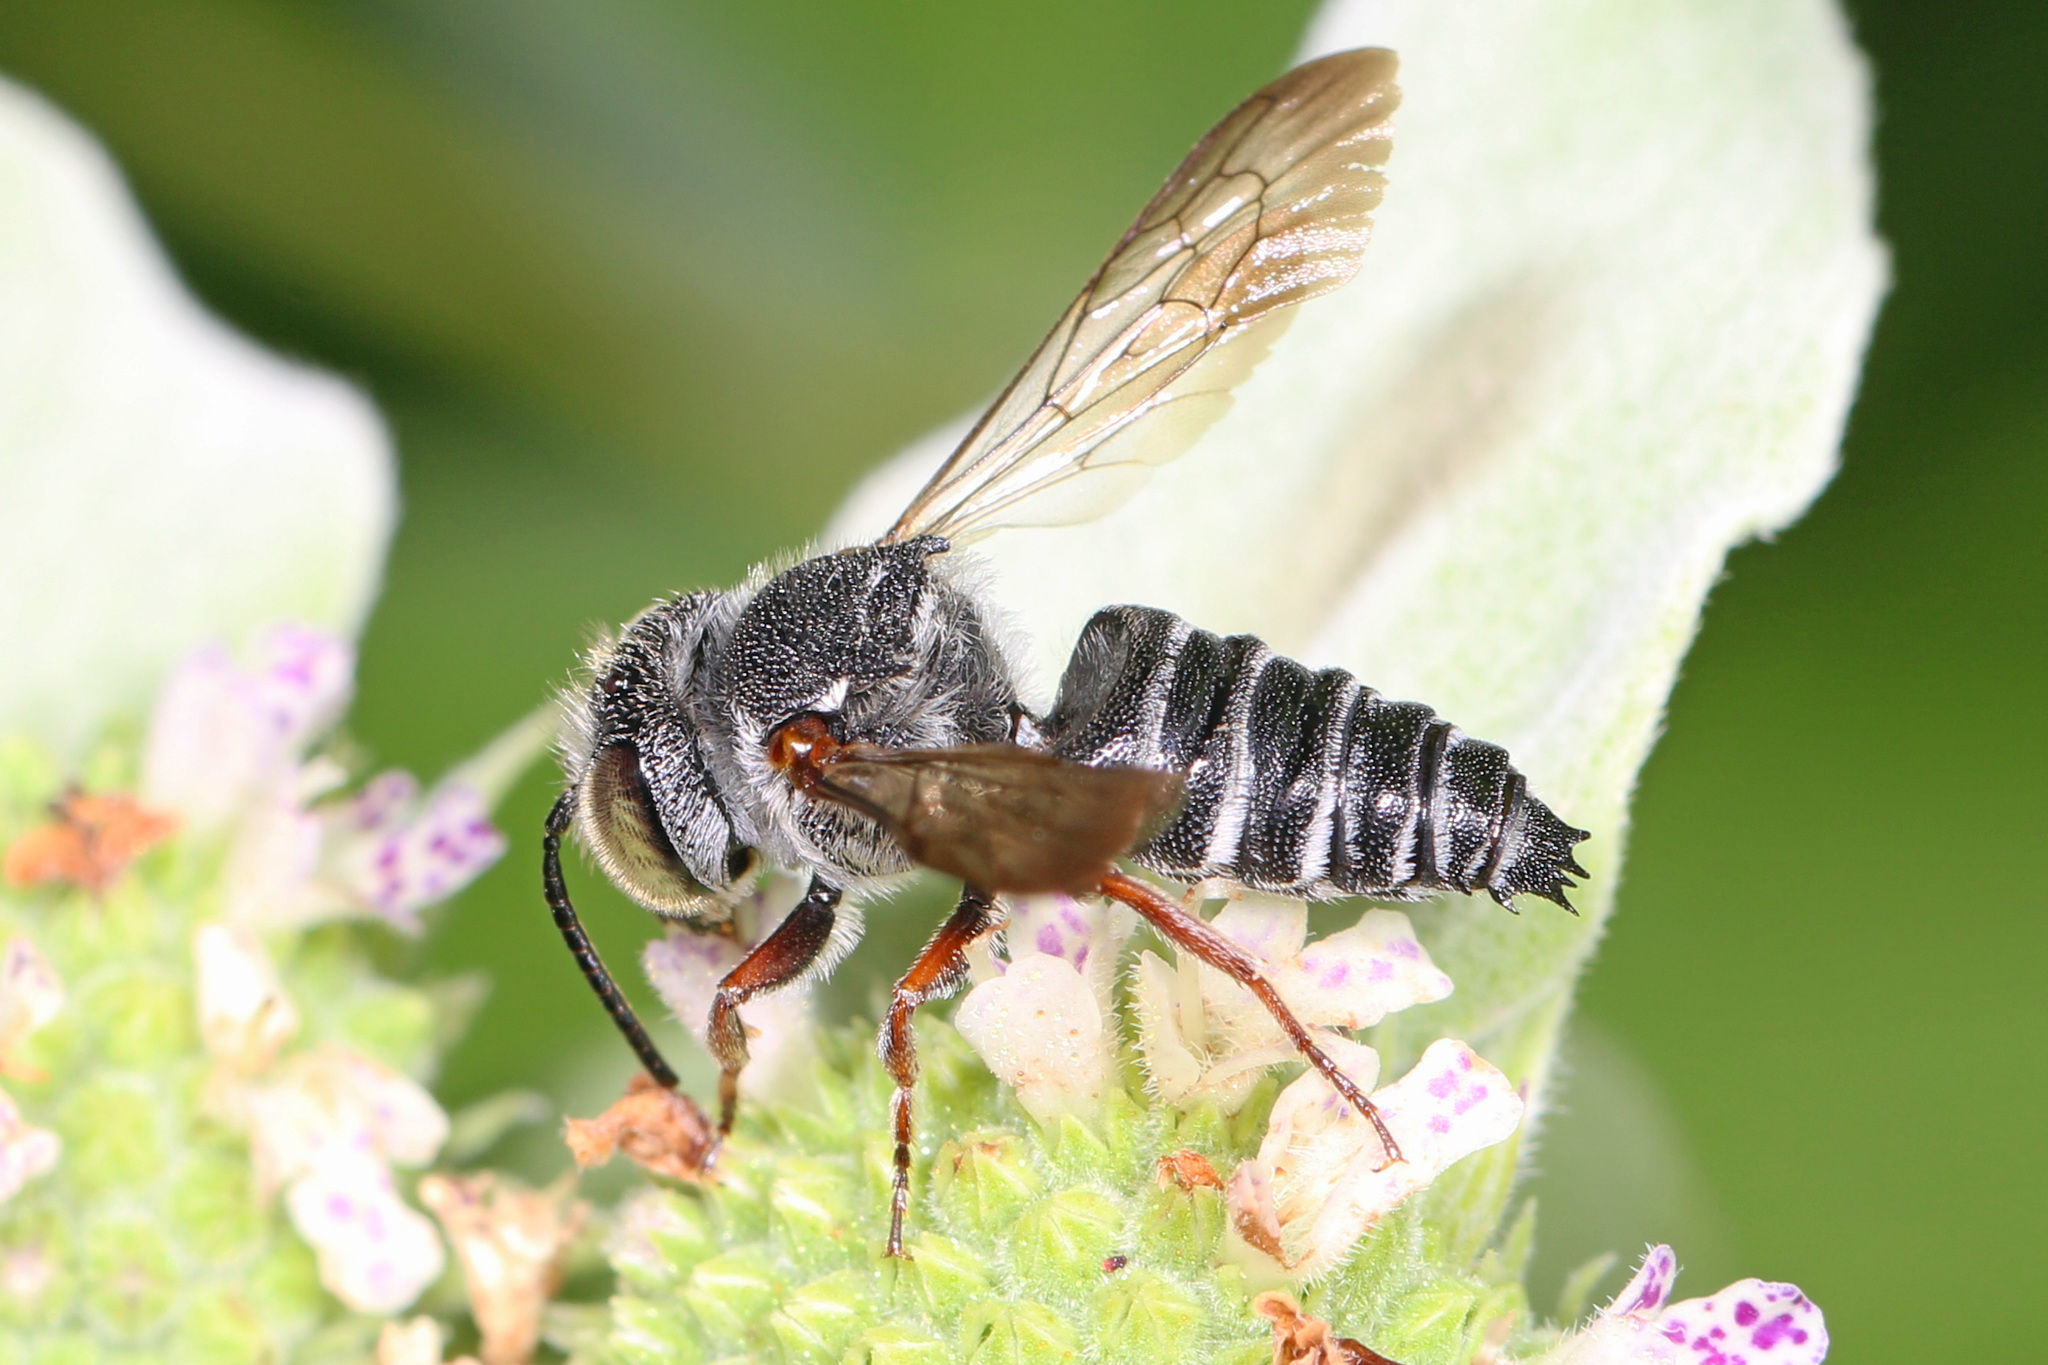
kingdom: Animalia
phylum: Arthropoda
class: Insecta
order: Hymenoptera
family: Megachilidae
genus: Coelioxys
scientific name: Coelioxys octodentatus
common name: Eight-toothed cuckoo leaf-cutter bee
